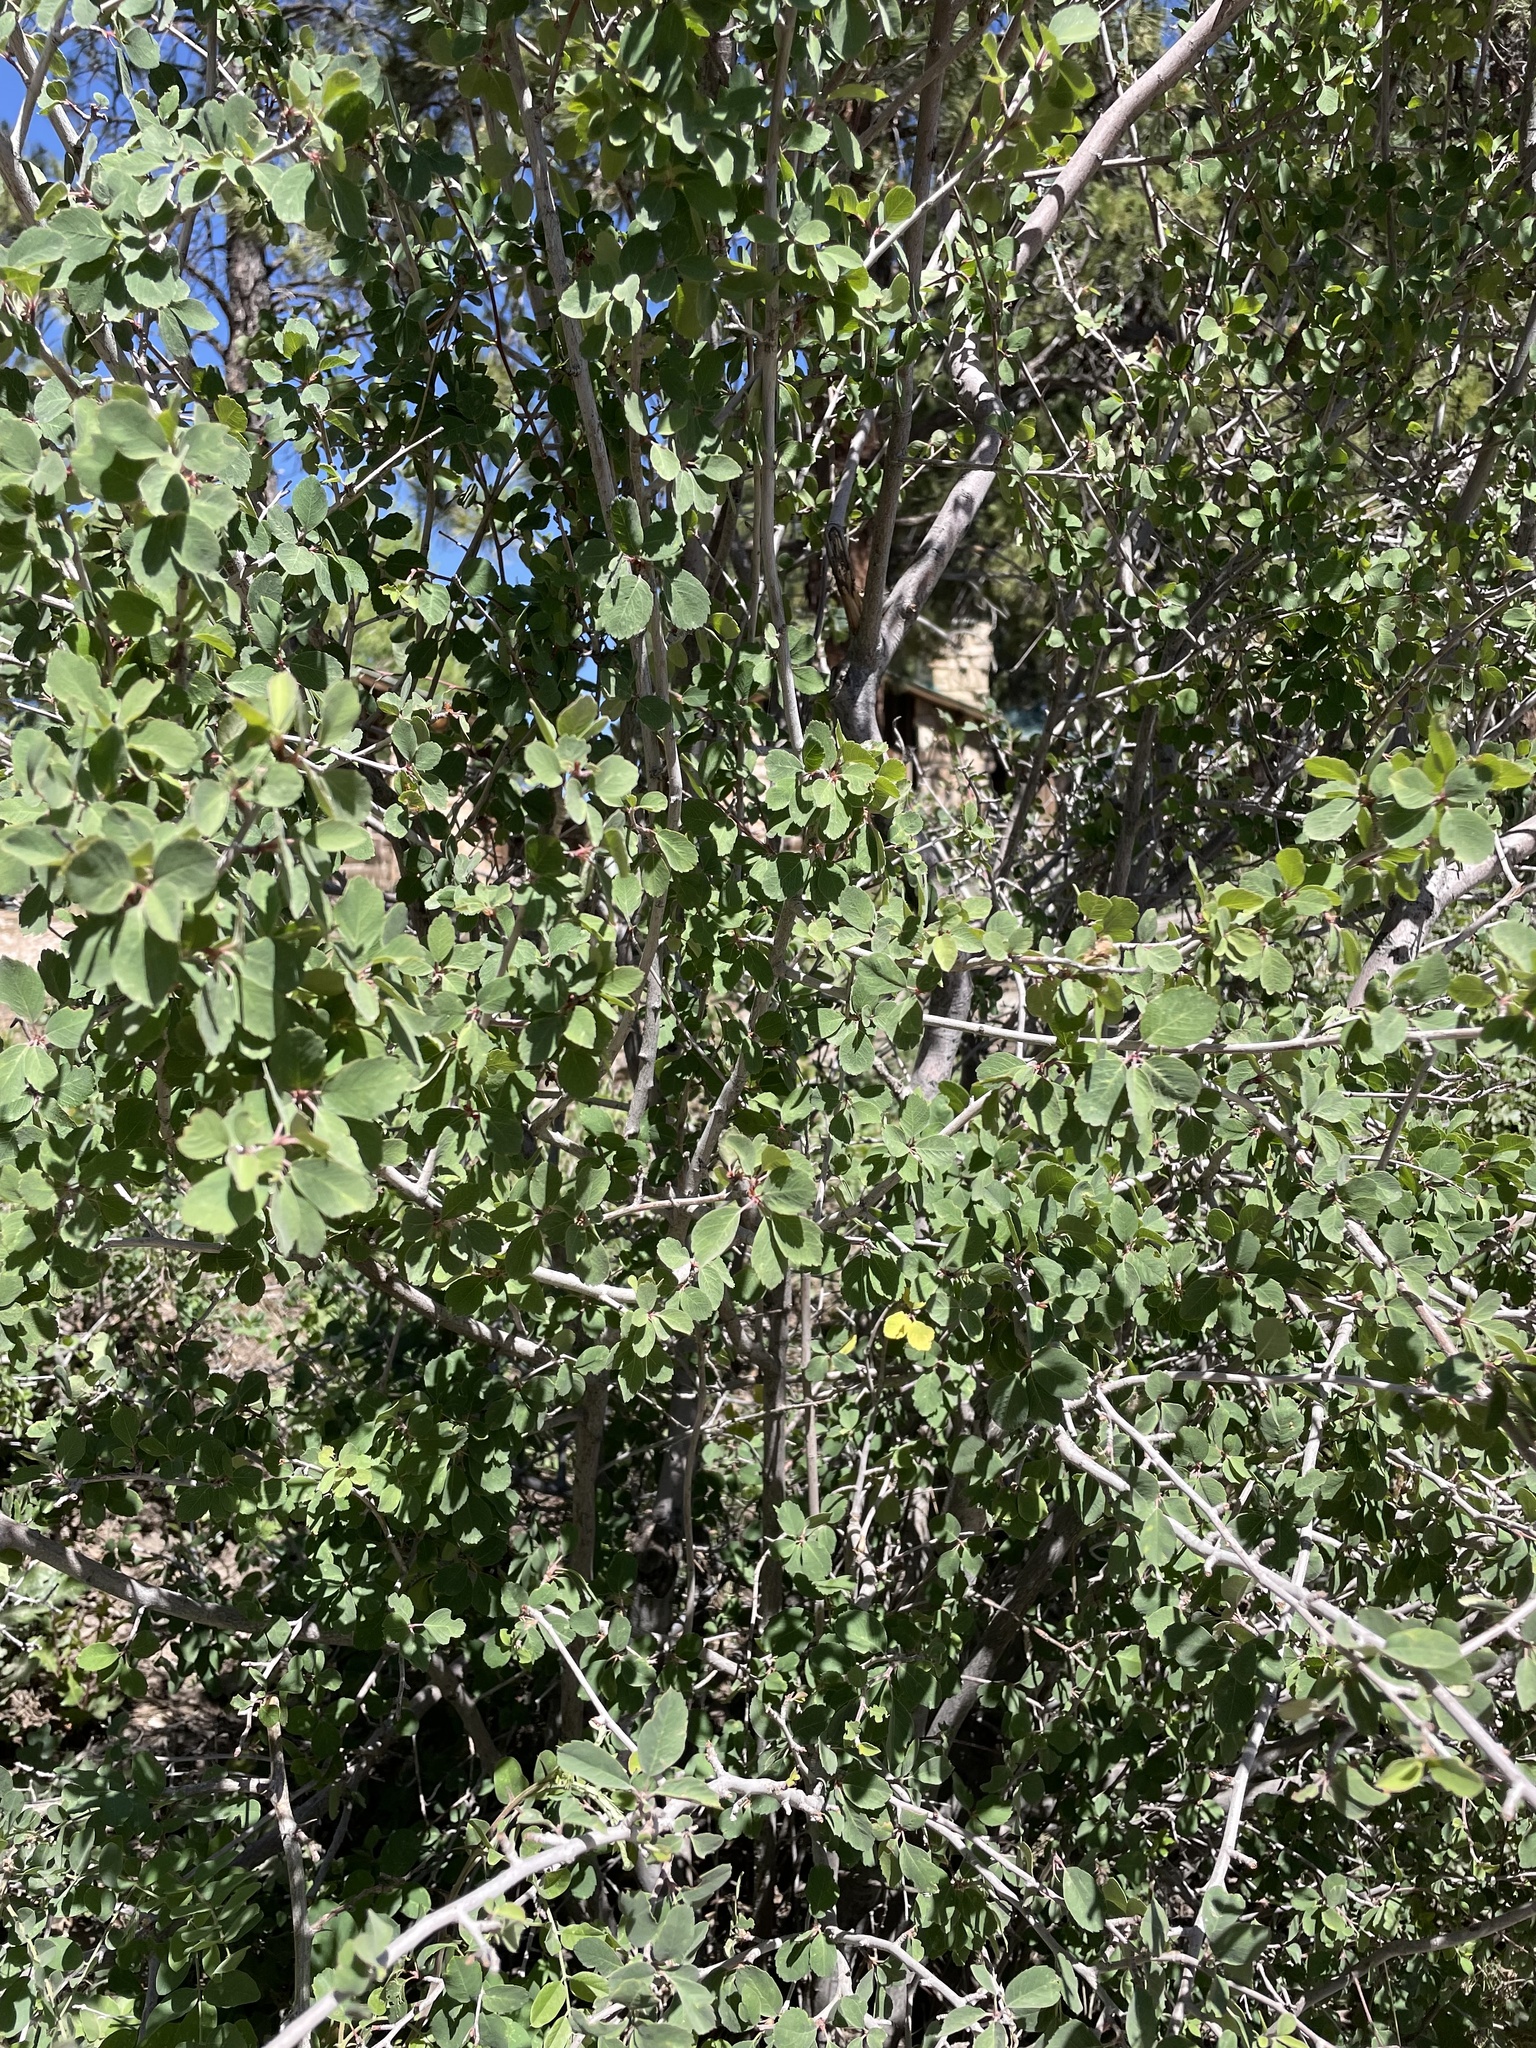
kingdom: Plantae
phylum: Tracheophyta
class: Magnoliopsida
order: Rosales
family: Rosaceae
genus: Amelanchier
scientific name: Amelanchier utahensis
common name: Utah serviceberry
